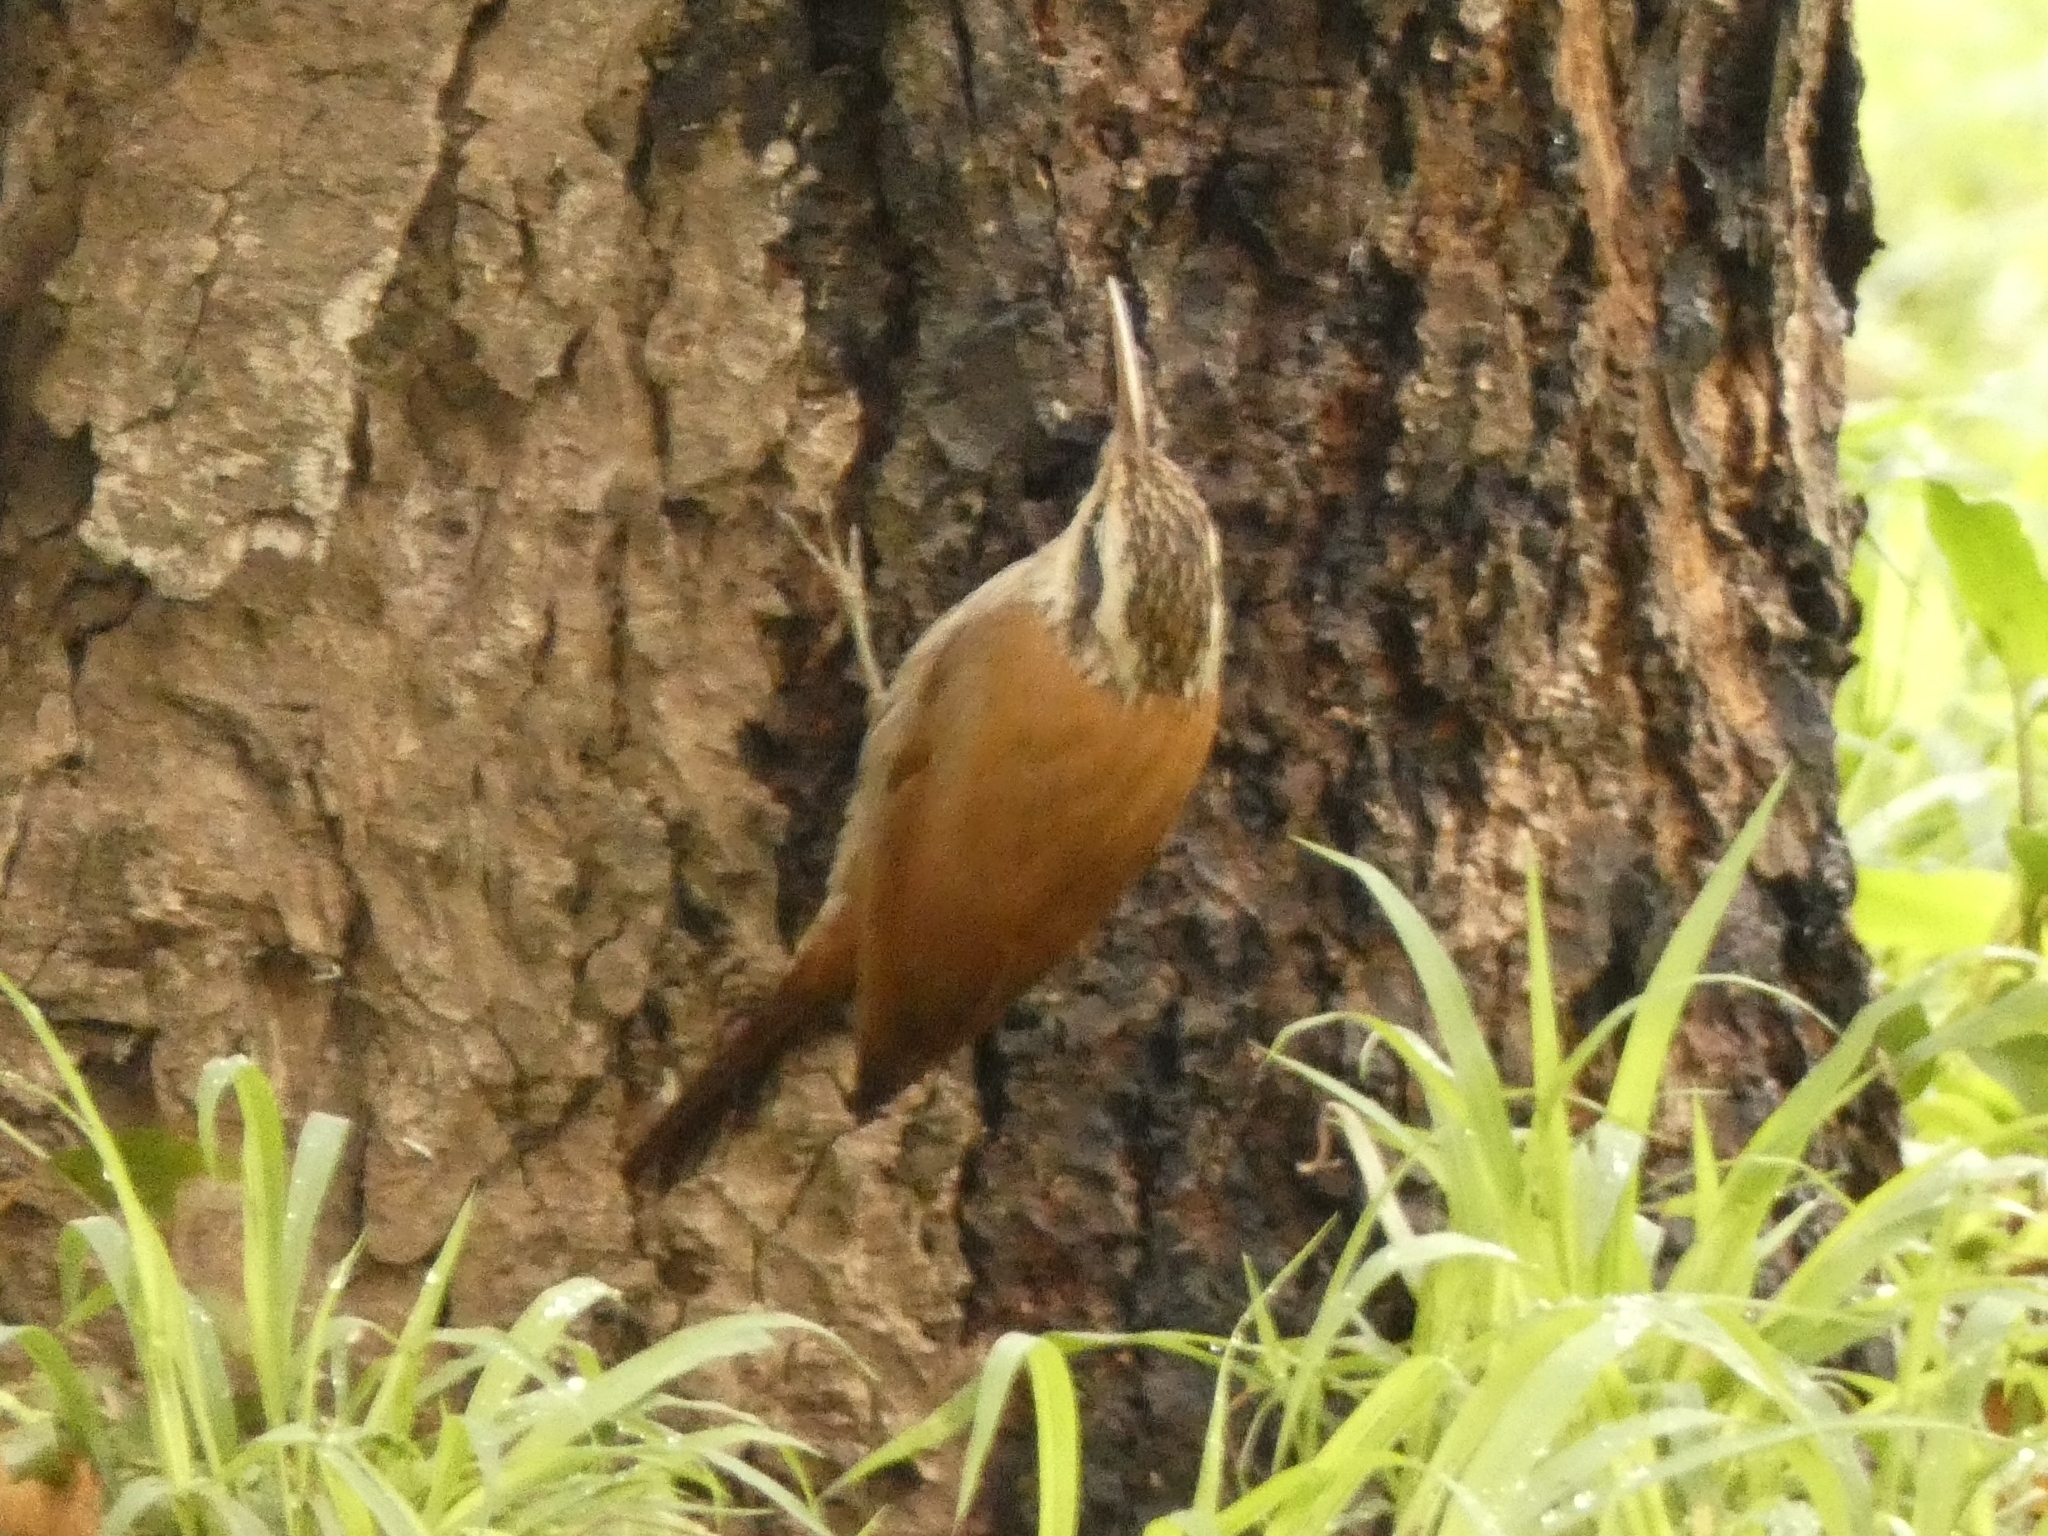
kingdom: Animalia
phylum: Chordata
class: Aves
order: Passeriformes
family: Furnariidae
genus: Lepidocolaptes
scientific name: Lepidocolaptes angustirostris
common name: Narrow-billed woodcreeper
